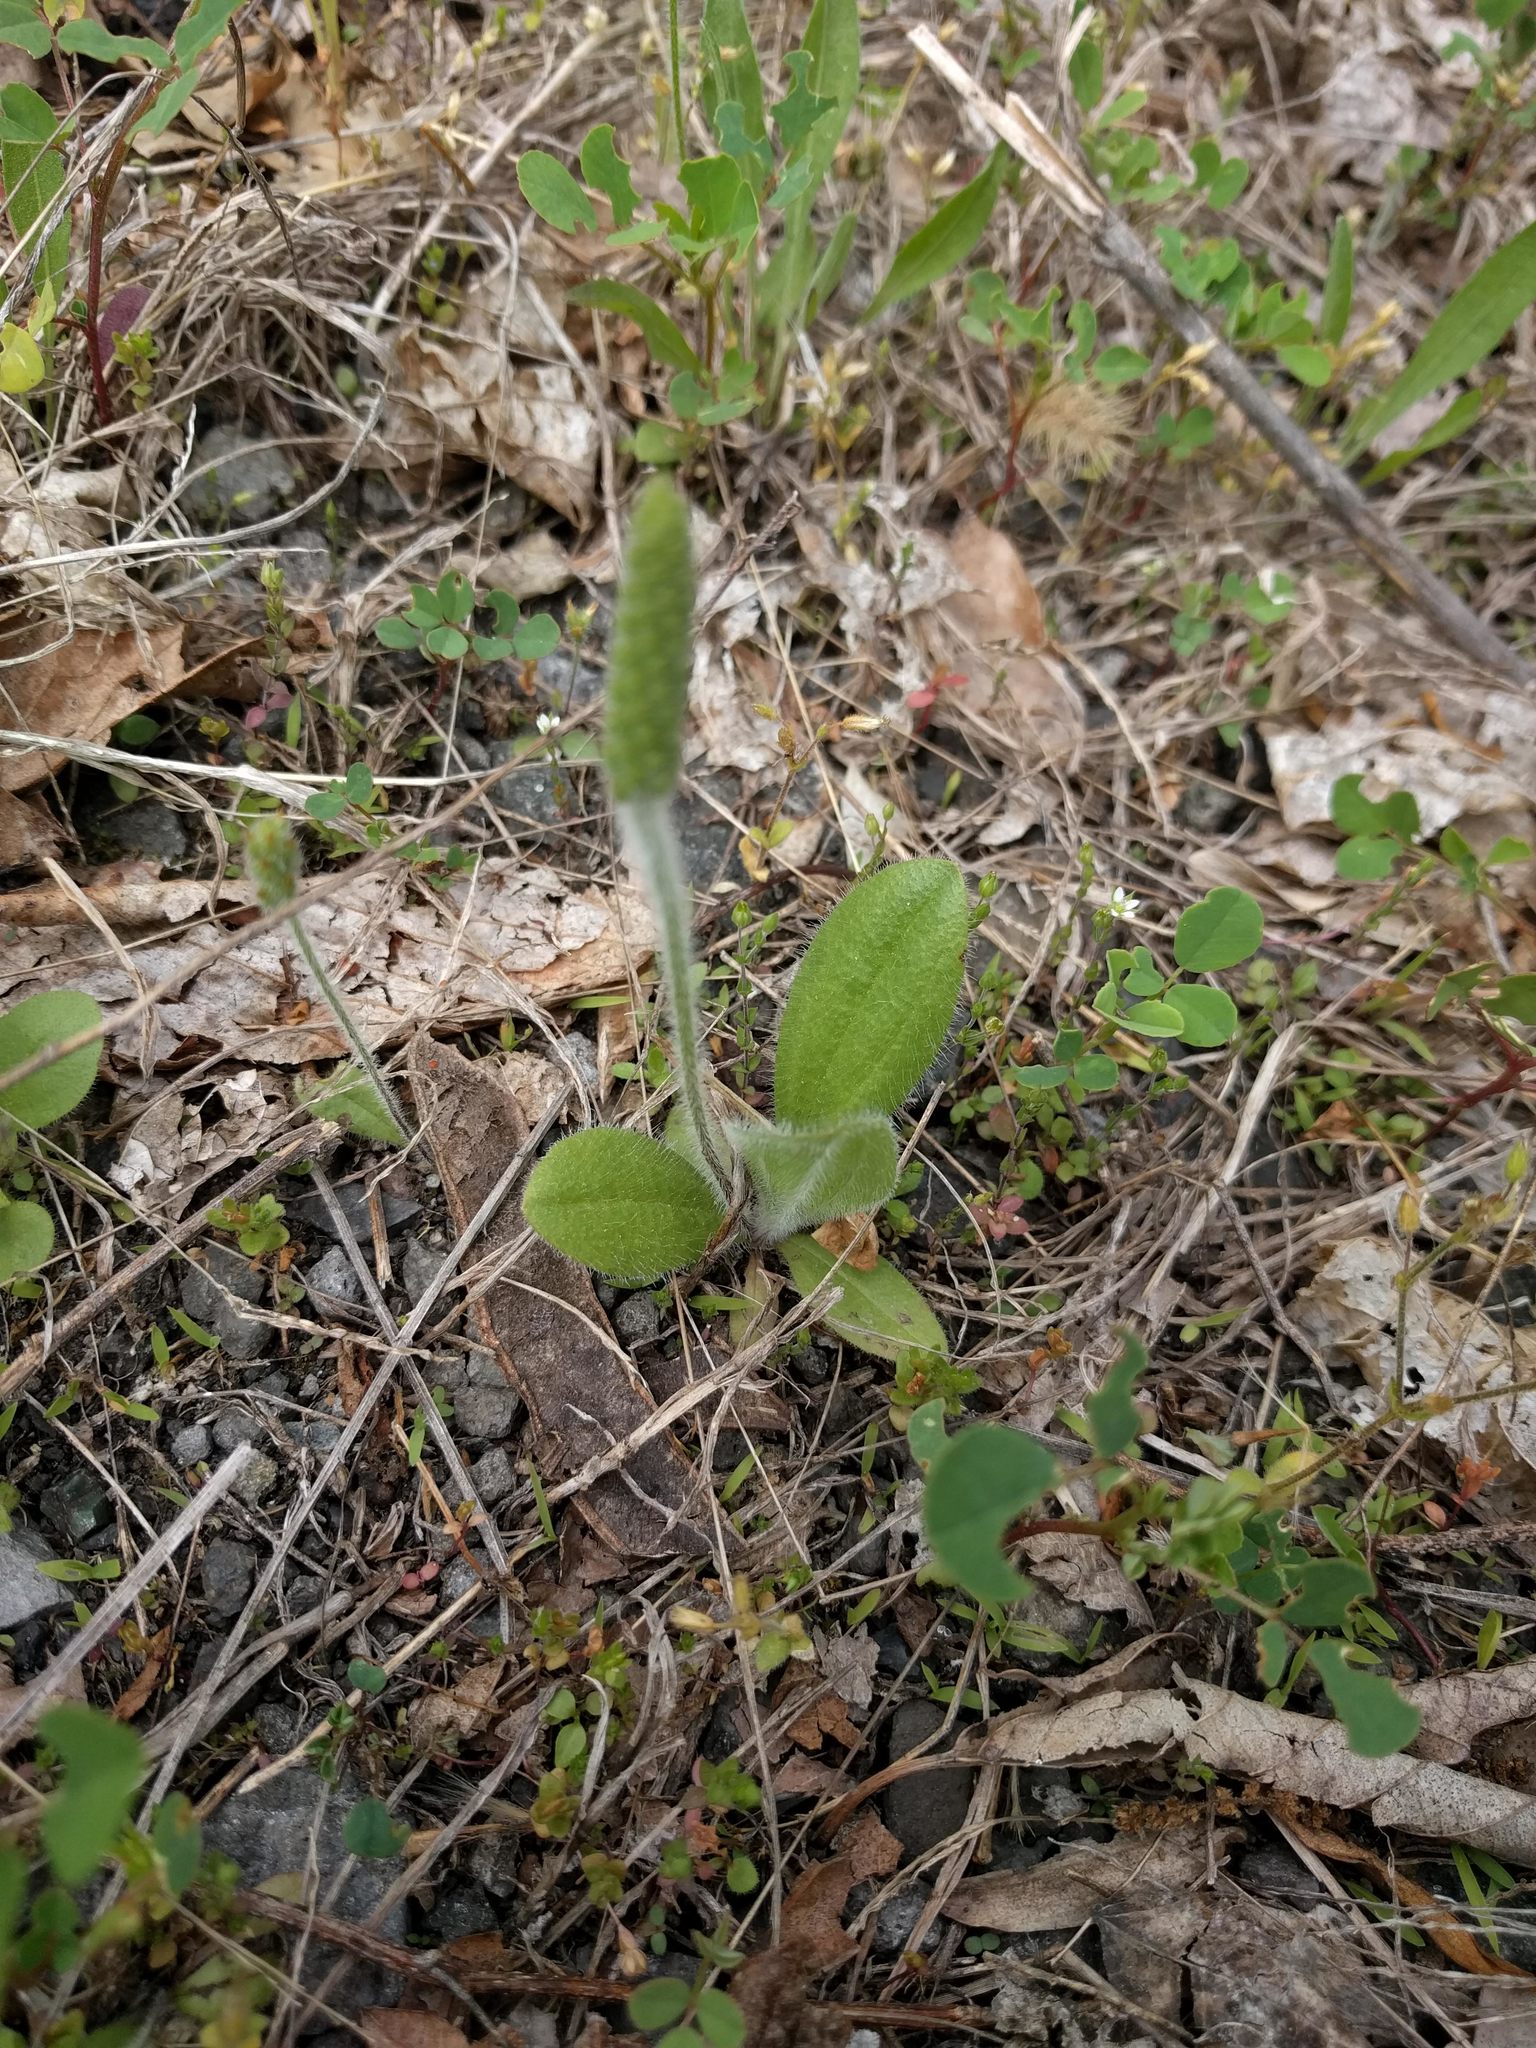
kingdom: Plantae
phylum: Tracheophyta
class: Magnoliopsida
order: Lamiales
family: Plantaginaceae
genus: Plantago
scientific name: Plantago virginica
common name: Hoary plantain
